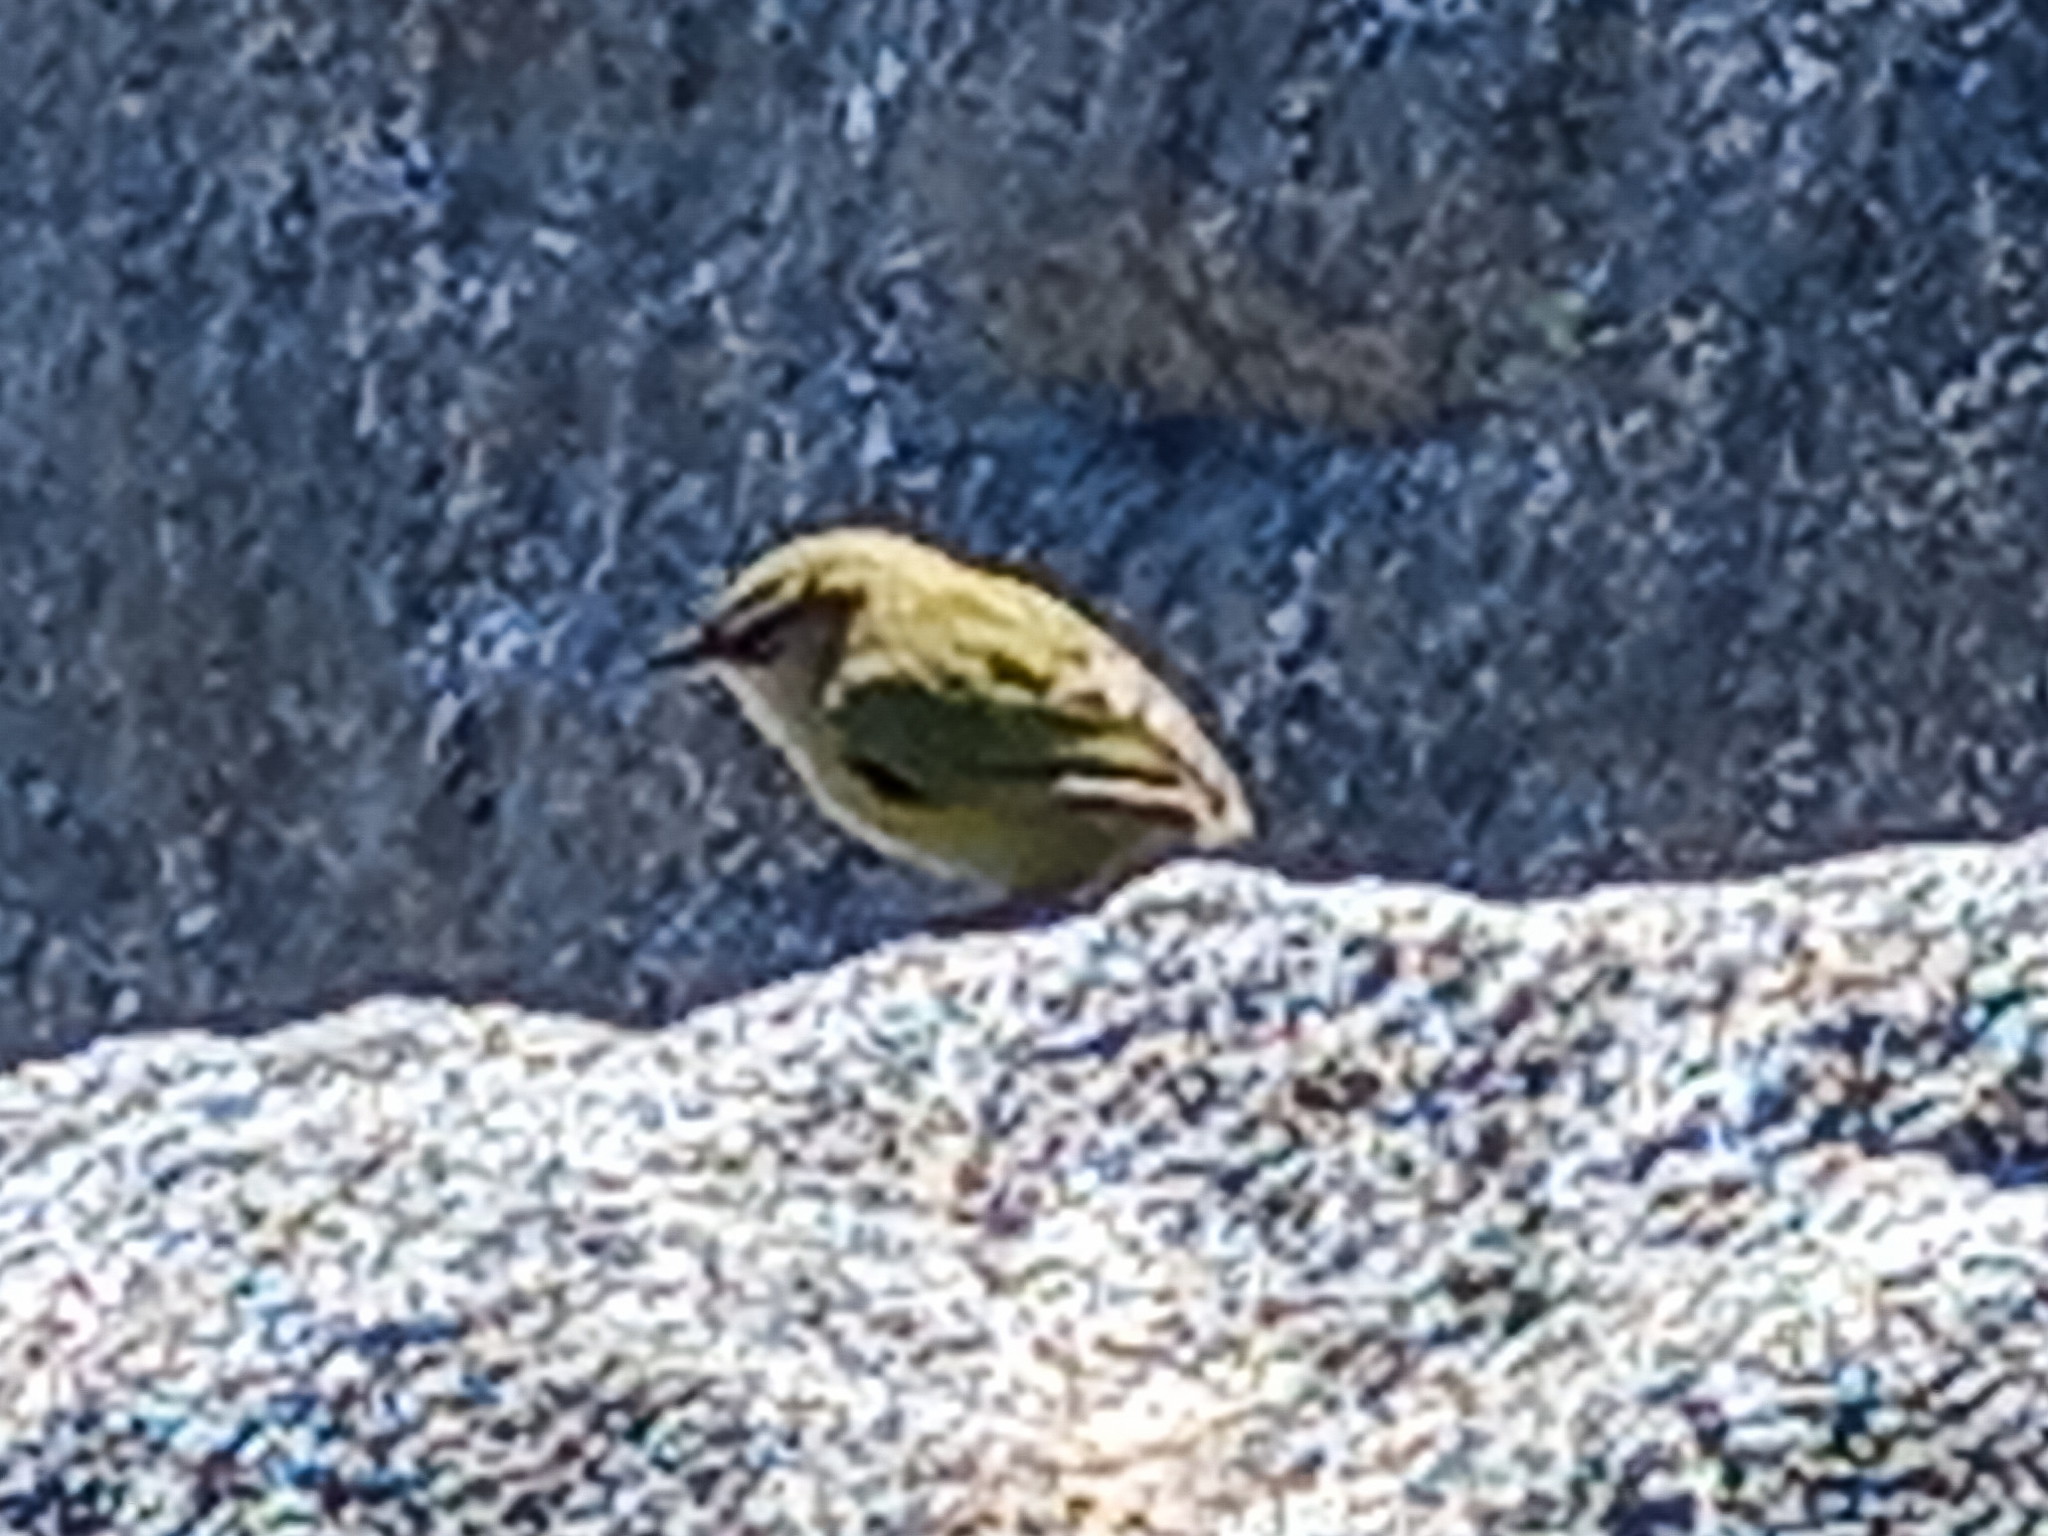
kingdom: Animalia
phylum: Chordata
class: Aves
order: Passeriformes
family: Acanthisittidae
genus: Xenicus
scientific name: Xenicus gilviventris
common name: New zealand rockwren
